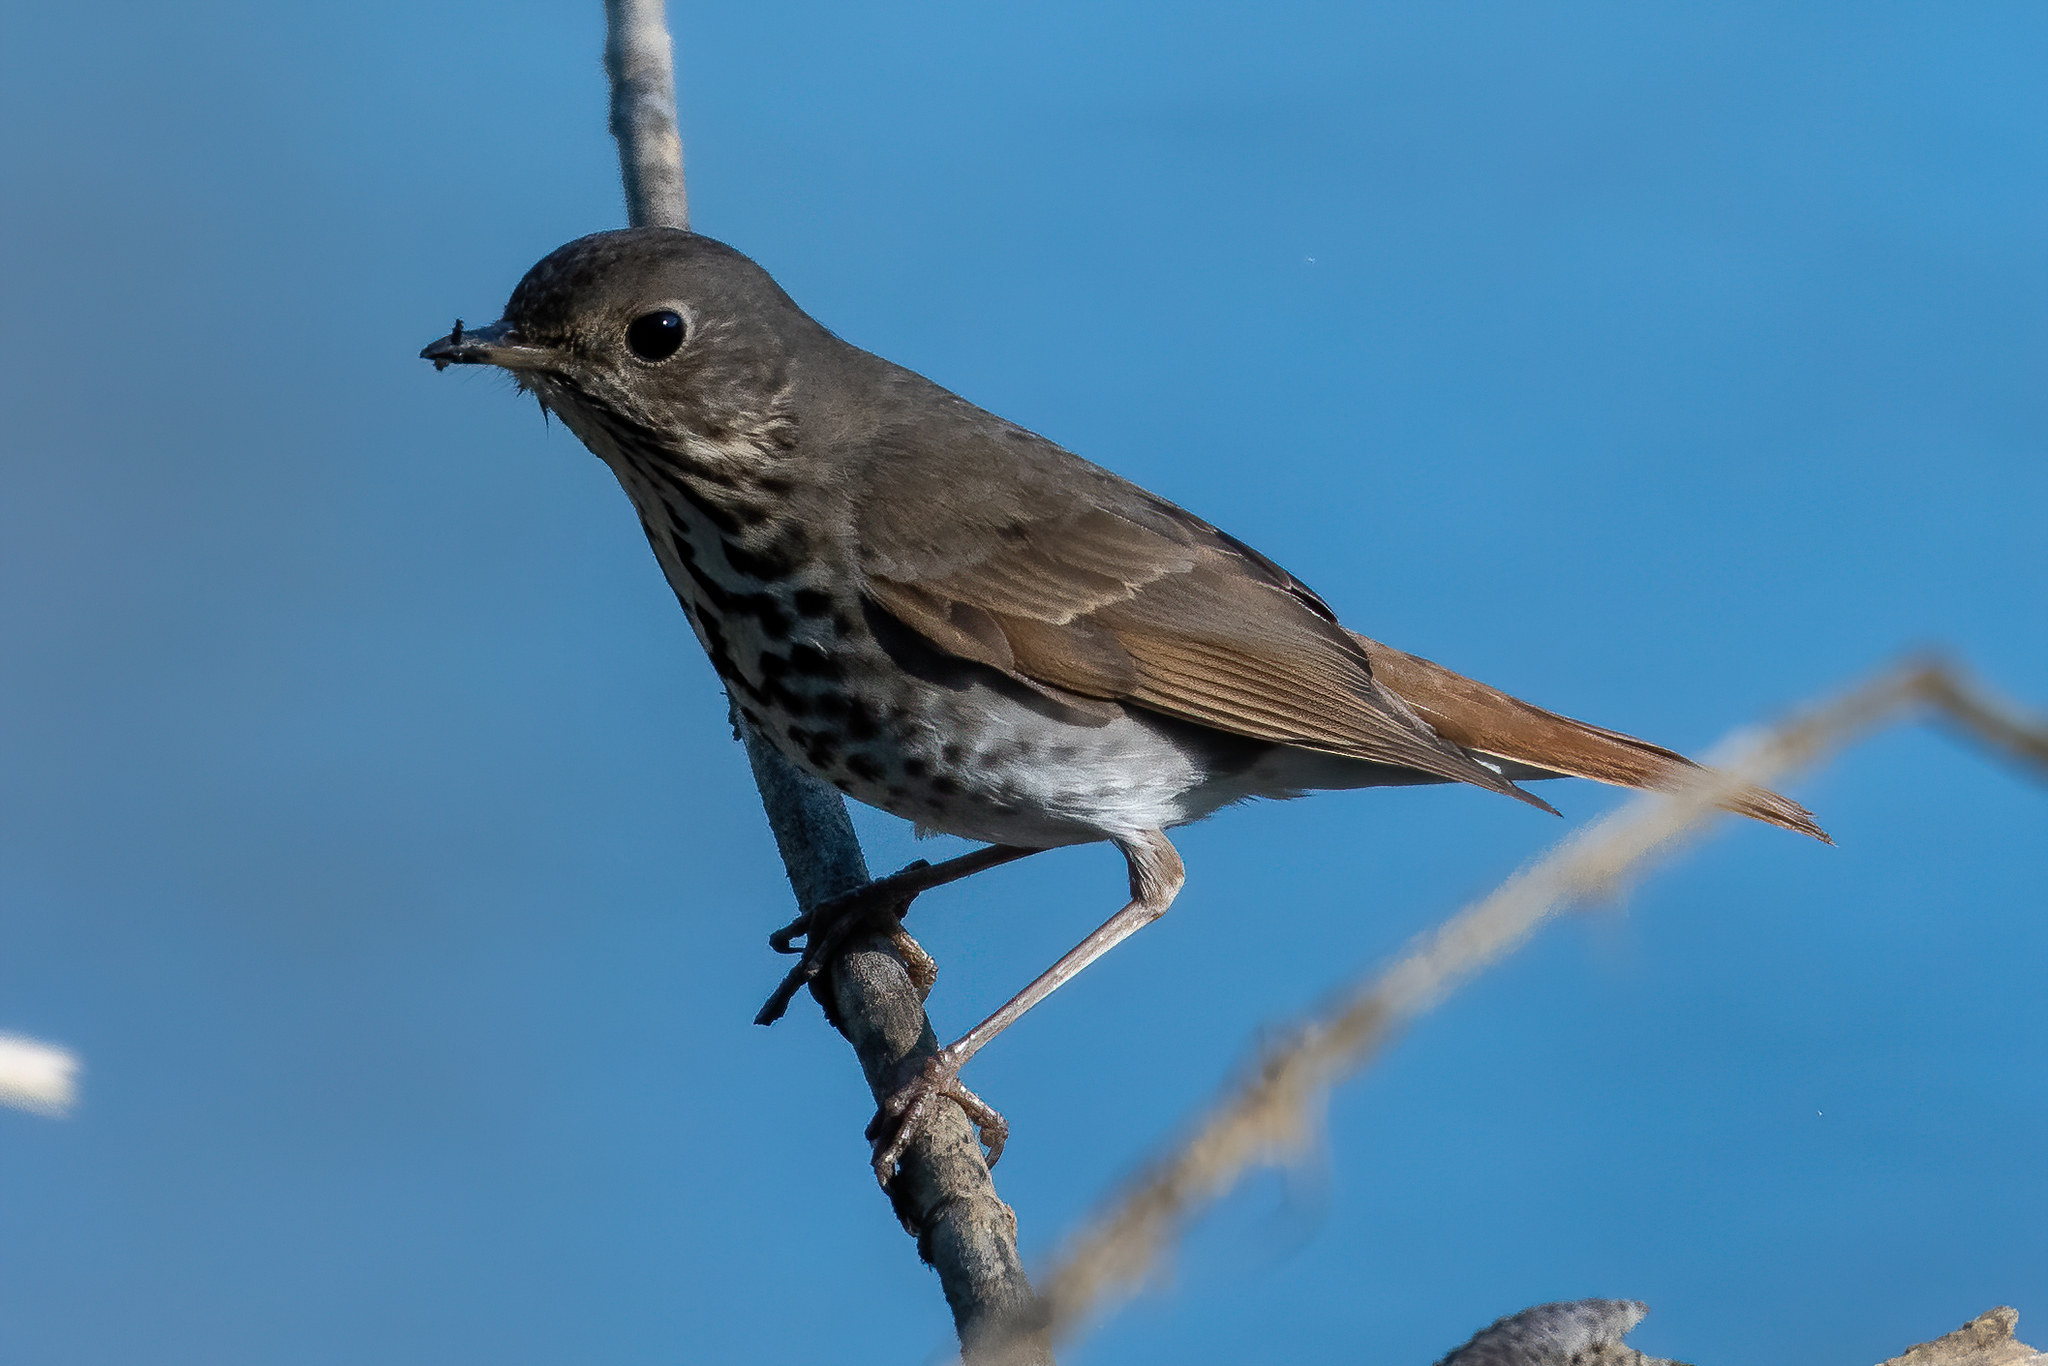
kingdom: Animalia
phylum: Chordata
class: Aves
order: Passeriformes
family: Turdidae
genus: Catharus
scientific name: Catharus guttatus
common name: Hermit thrush
